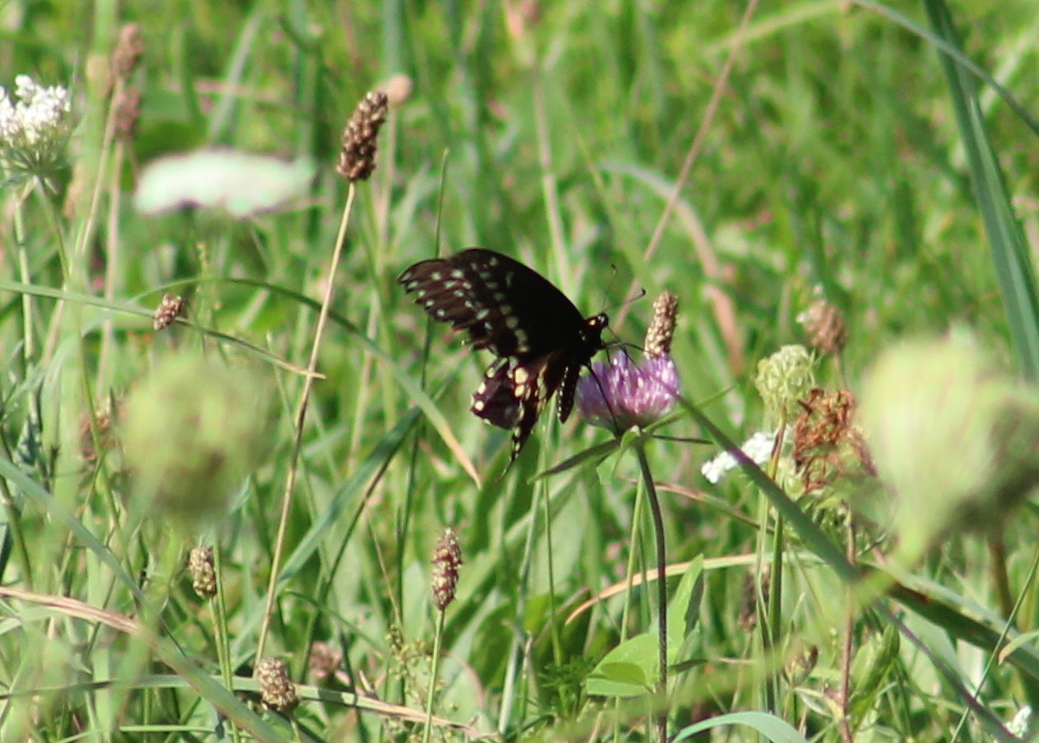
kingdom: Animalia
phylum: Arthropoda
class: Insecta
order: Lepidoptera
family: Papilionidae
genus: Papilio
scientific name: Papilio polyxenes
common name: Black swallowtail
